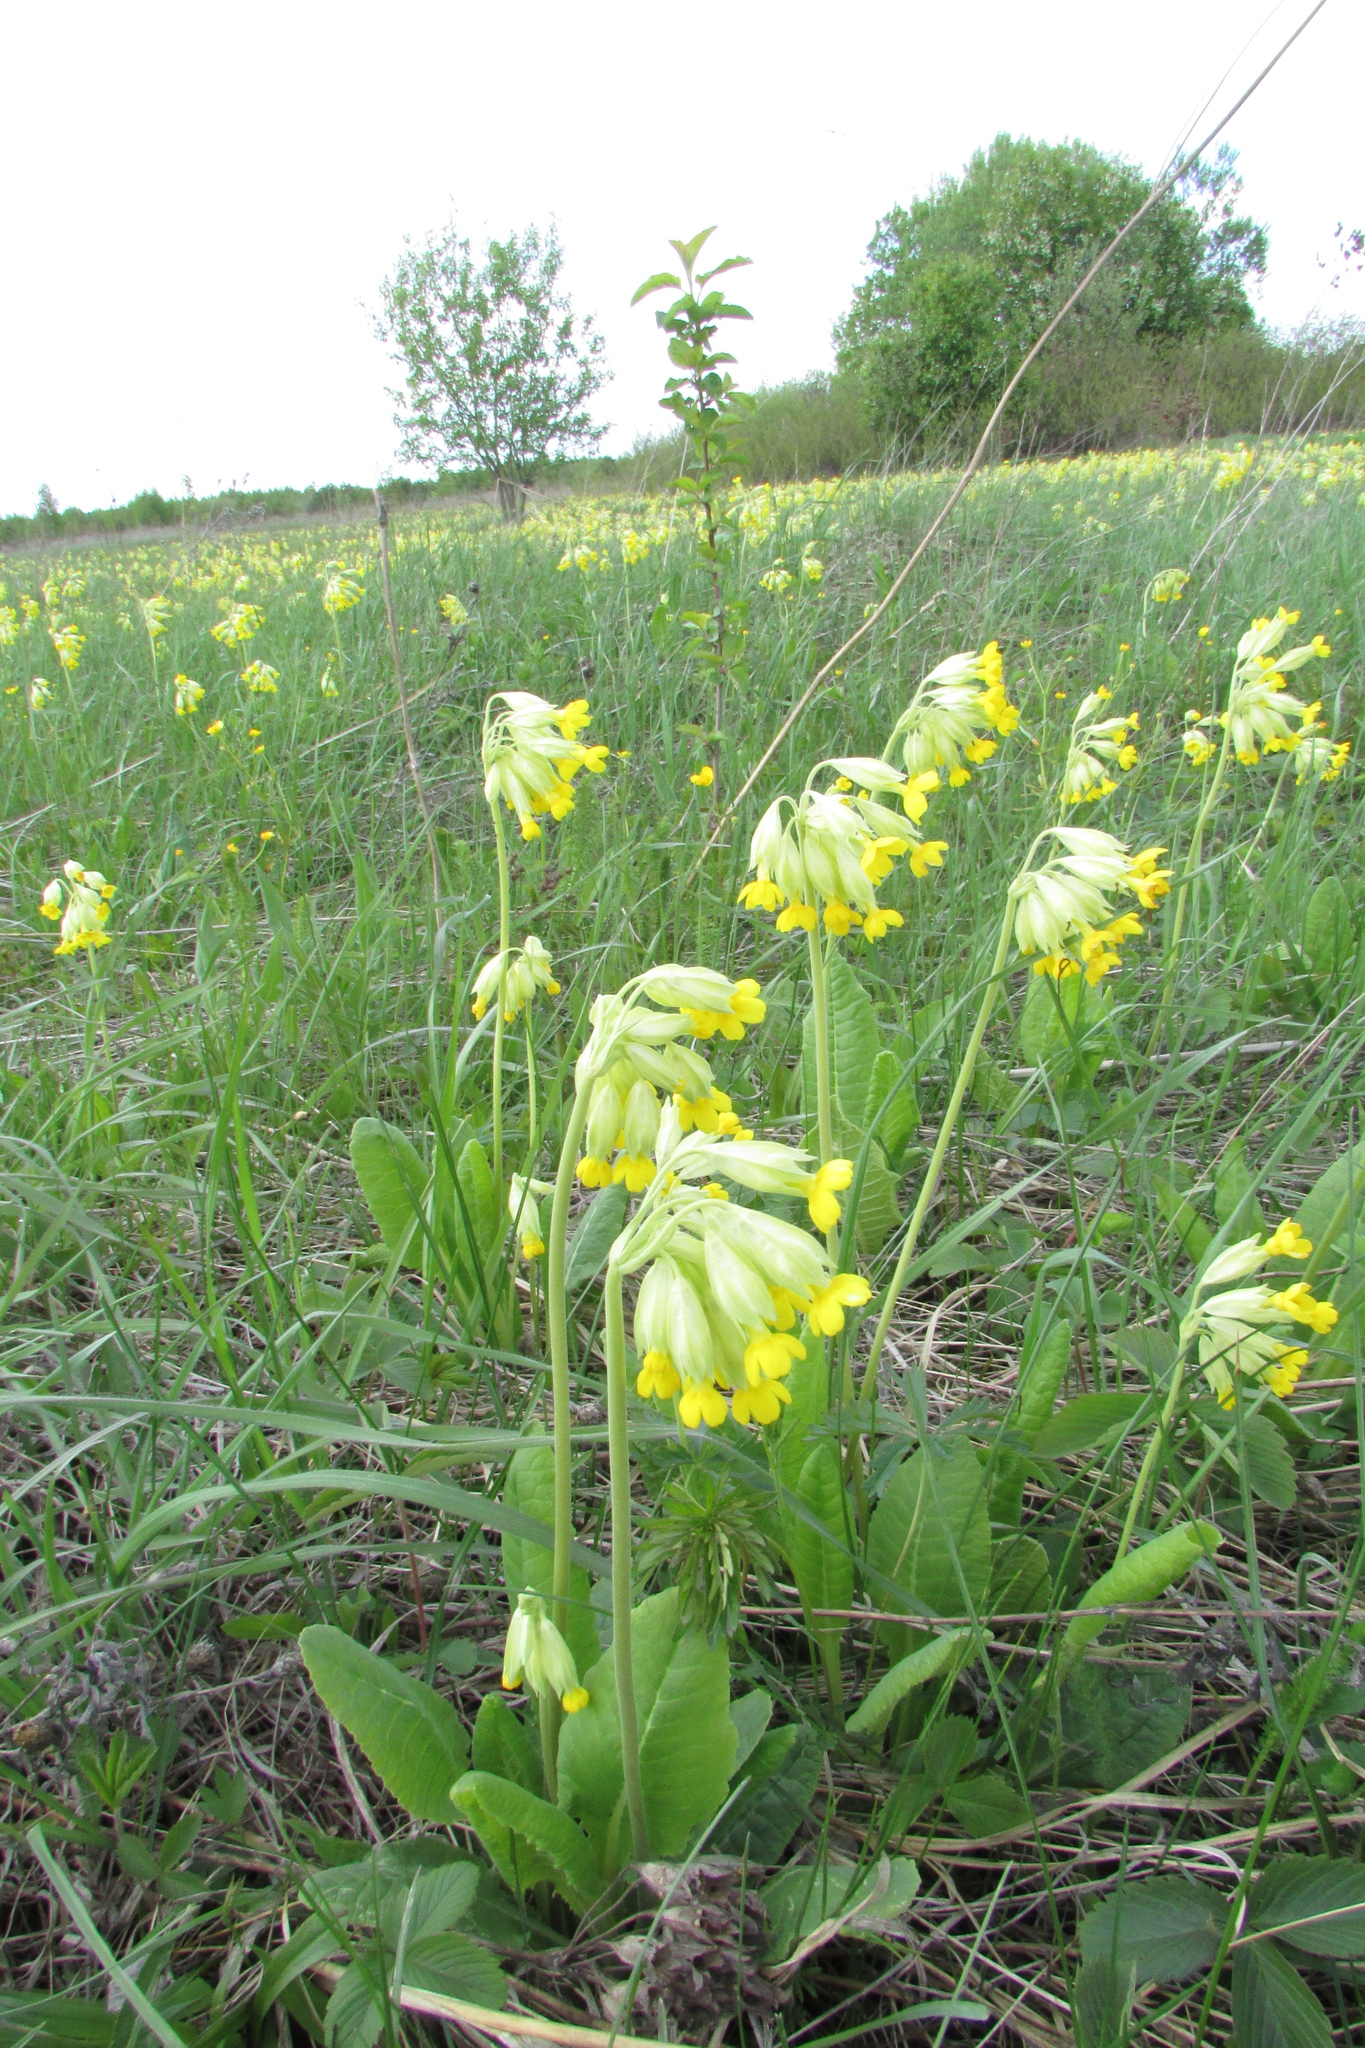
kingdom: Plantae
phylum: Tracheophyta
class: Magnoliopsida
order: Ericales
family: Primulaceae
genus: Primula
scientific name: Primula veris
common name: Cowslip
